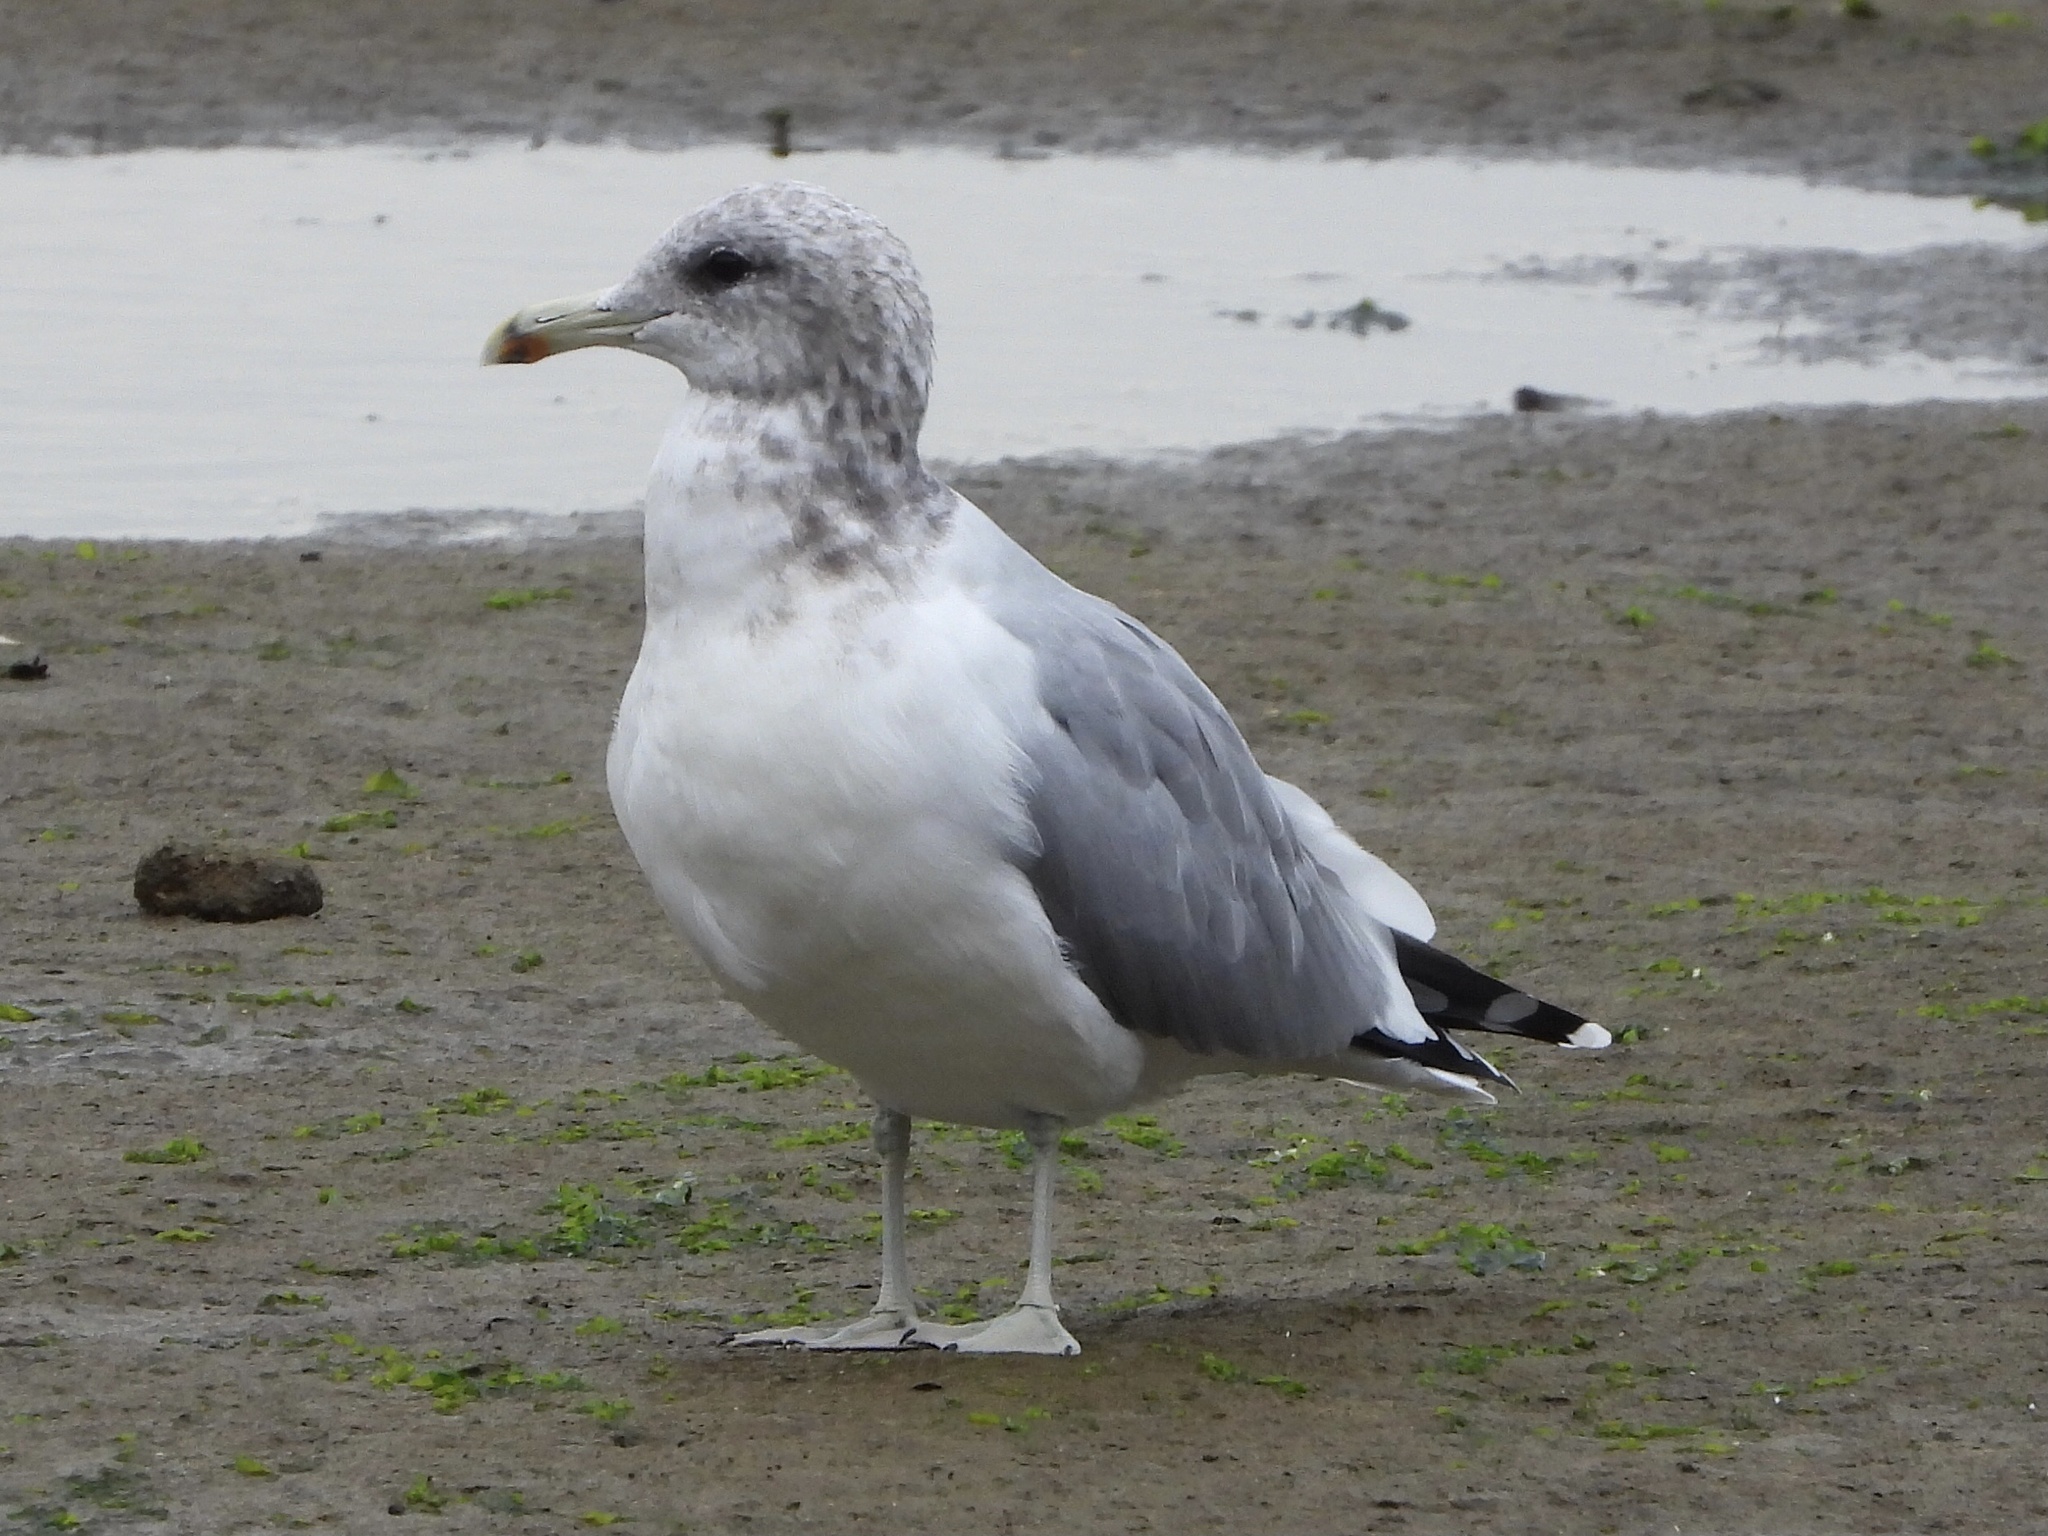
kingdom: Animalia
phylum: Chordata
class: Aves
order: Charadriiformes
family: Laridae
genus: Larus
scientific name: Larus californicus
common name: California gull
